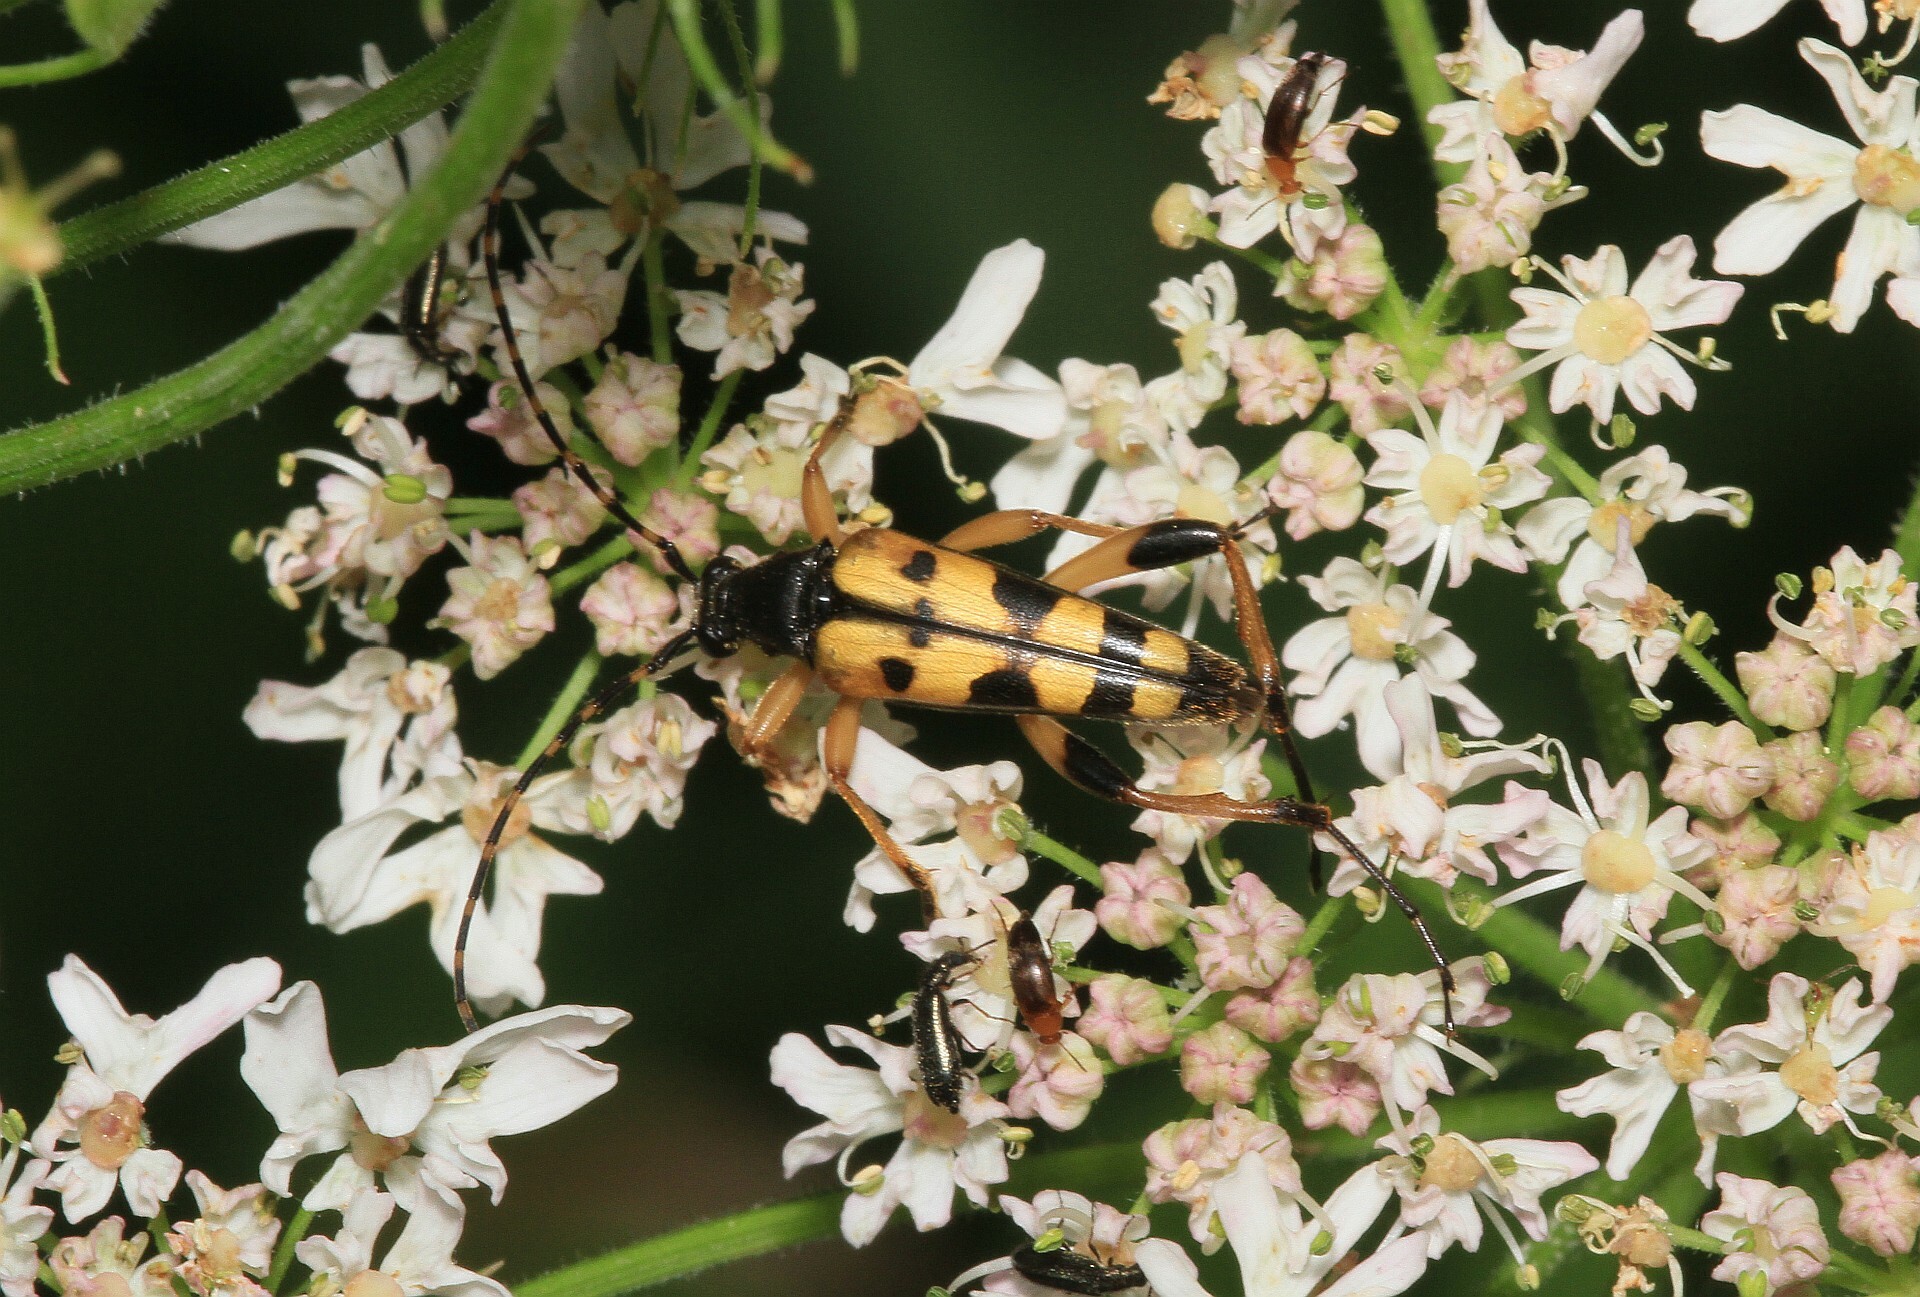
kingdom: Animalia
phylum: Arthropoda
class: Insecta
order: Coleoptera
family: Cerambycidae
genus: Rutpela
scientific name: Rutpela maculata
